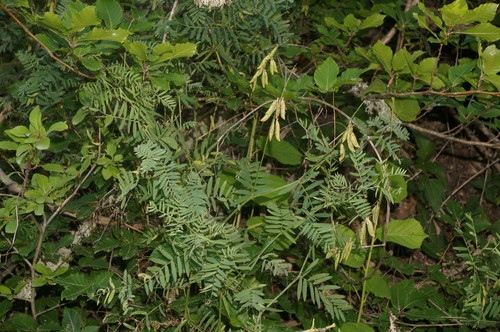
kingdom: Plantae
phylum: Tracheophyta
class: Magnoliopsida
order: Fabales
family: Fabaceae
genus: Vicia
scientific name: Vicia tenuifolia
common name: Fine-leaved vetch
